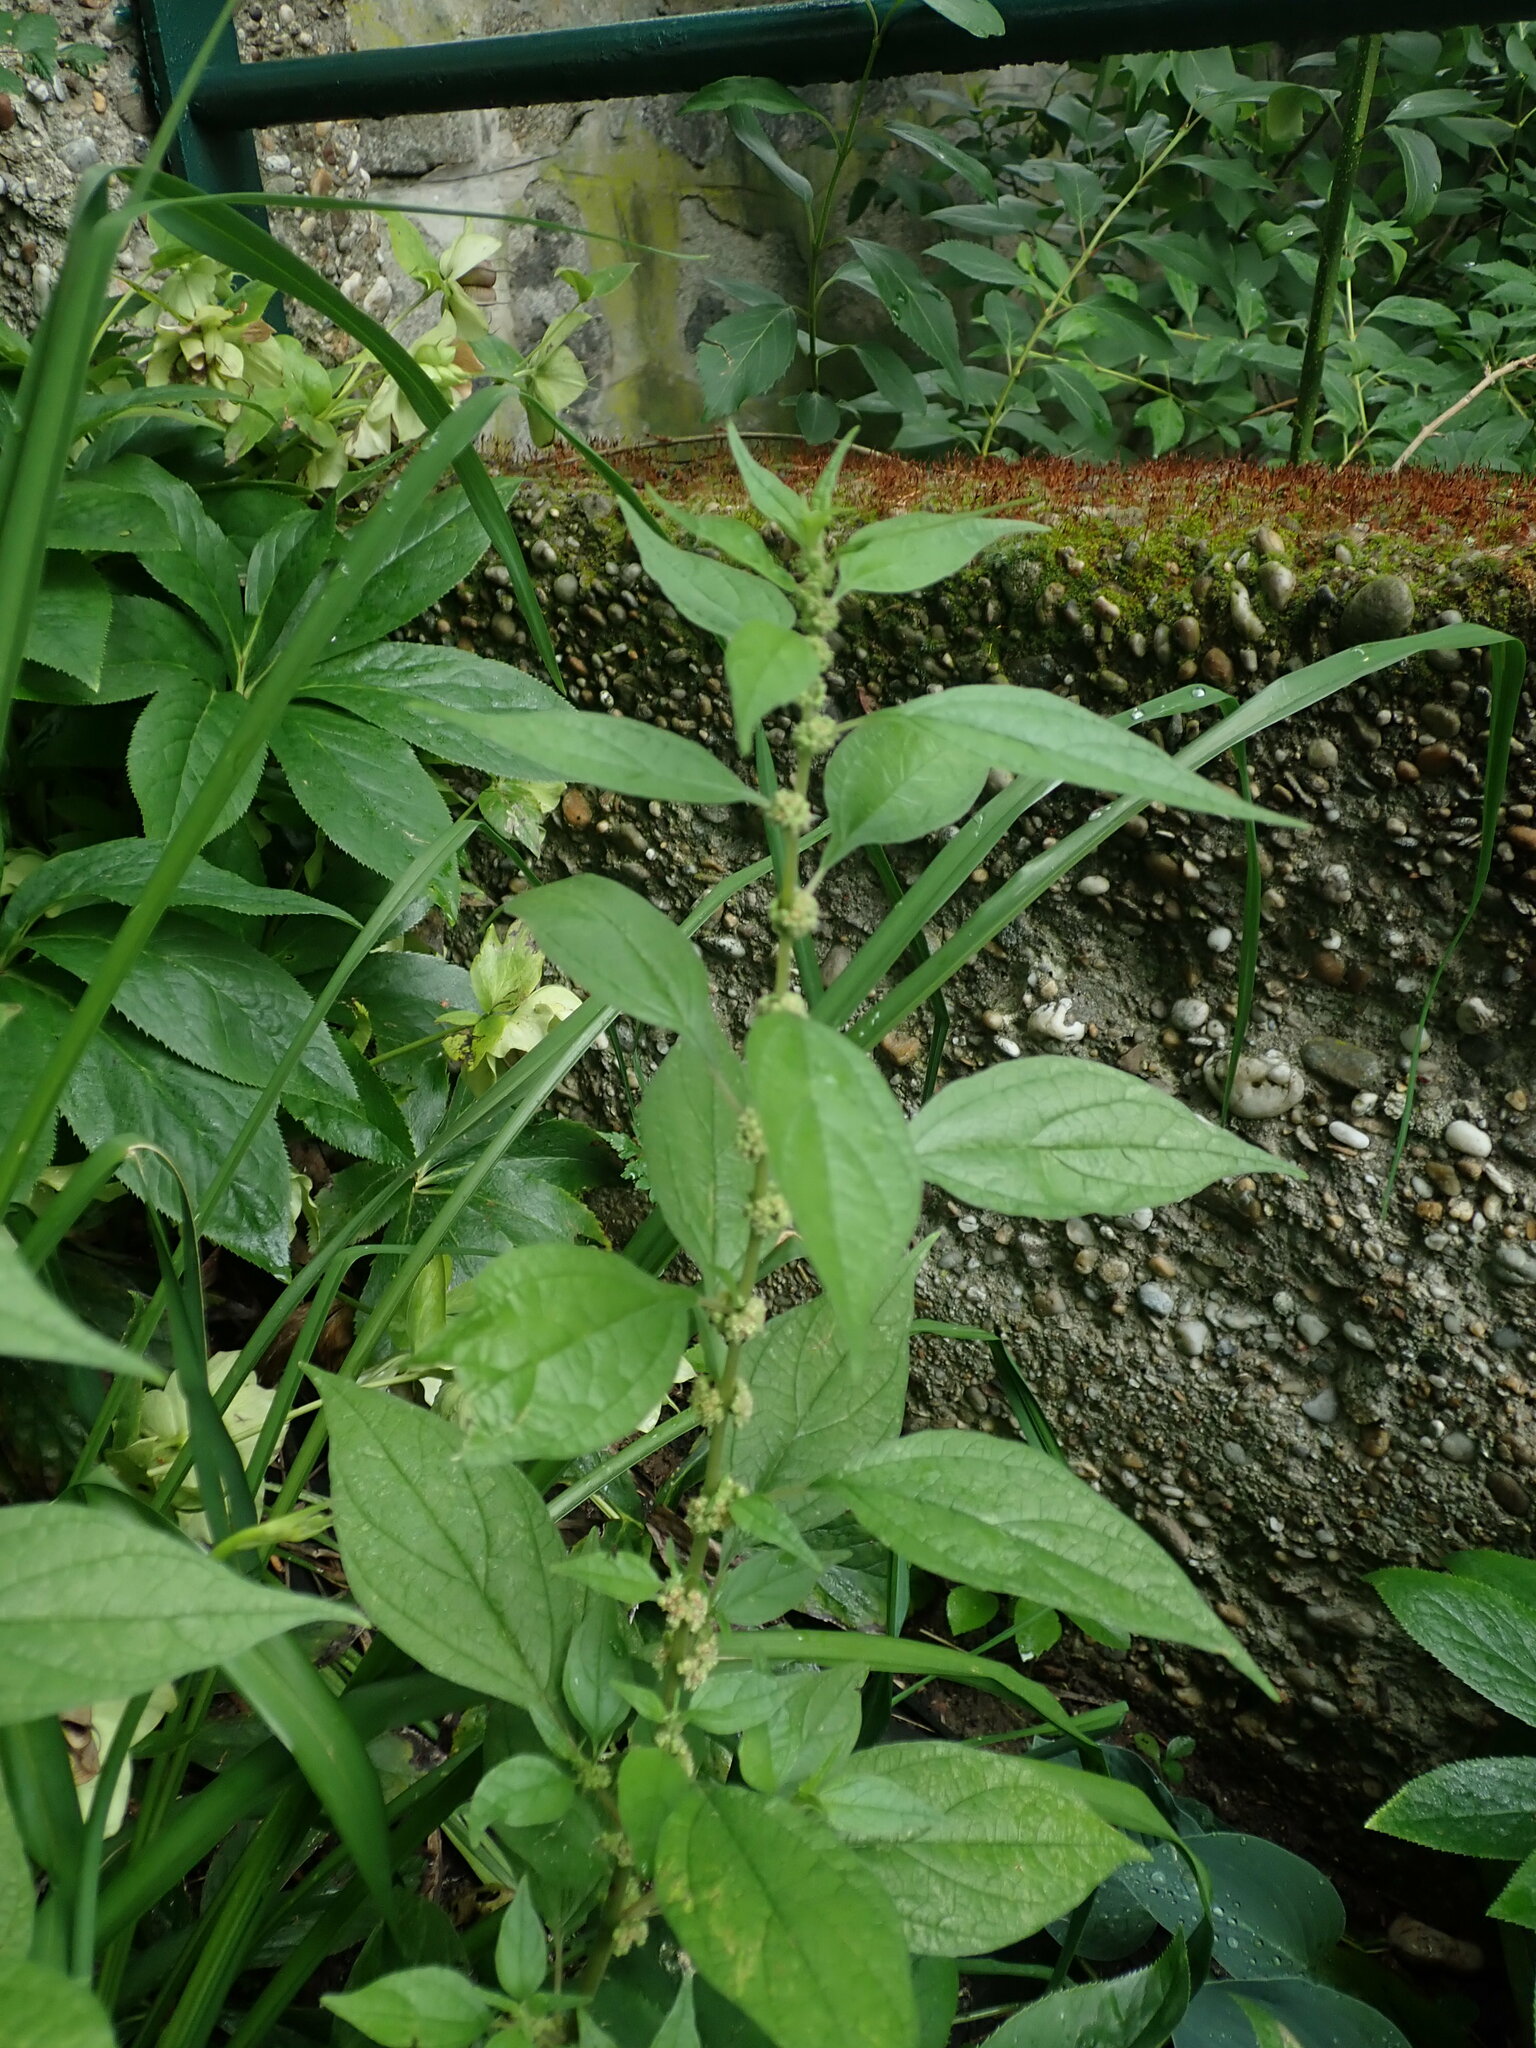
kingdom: Plantae
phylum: Tracheophyta
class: Magnoliopsida
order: Rosales
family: Urticaceae
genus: Parietaria
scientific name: Parietaria officinalis
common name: Eastern pellitory-of-the-wall
